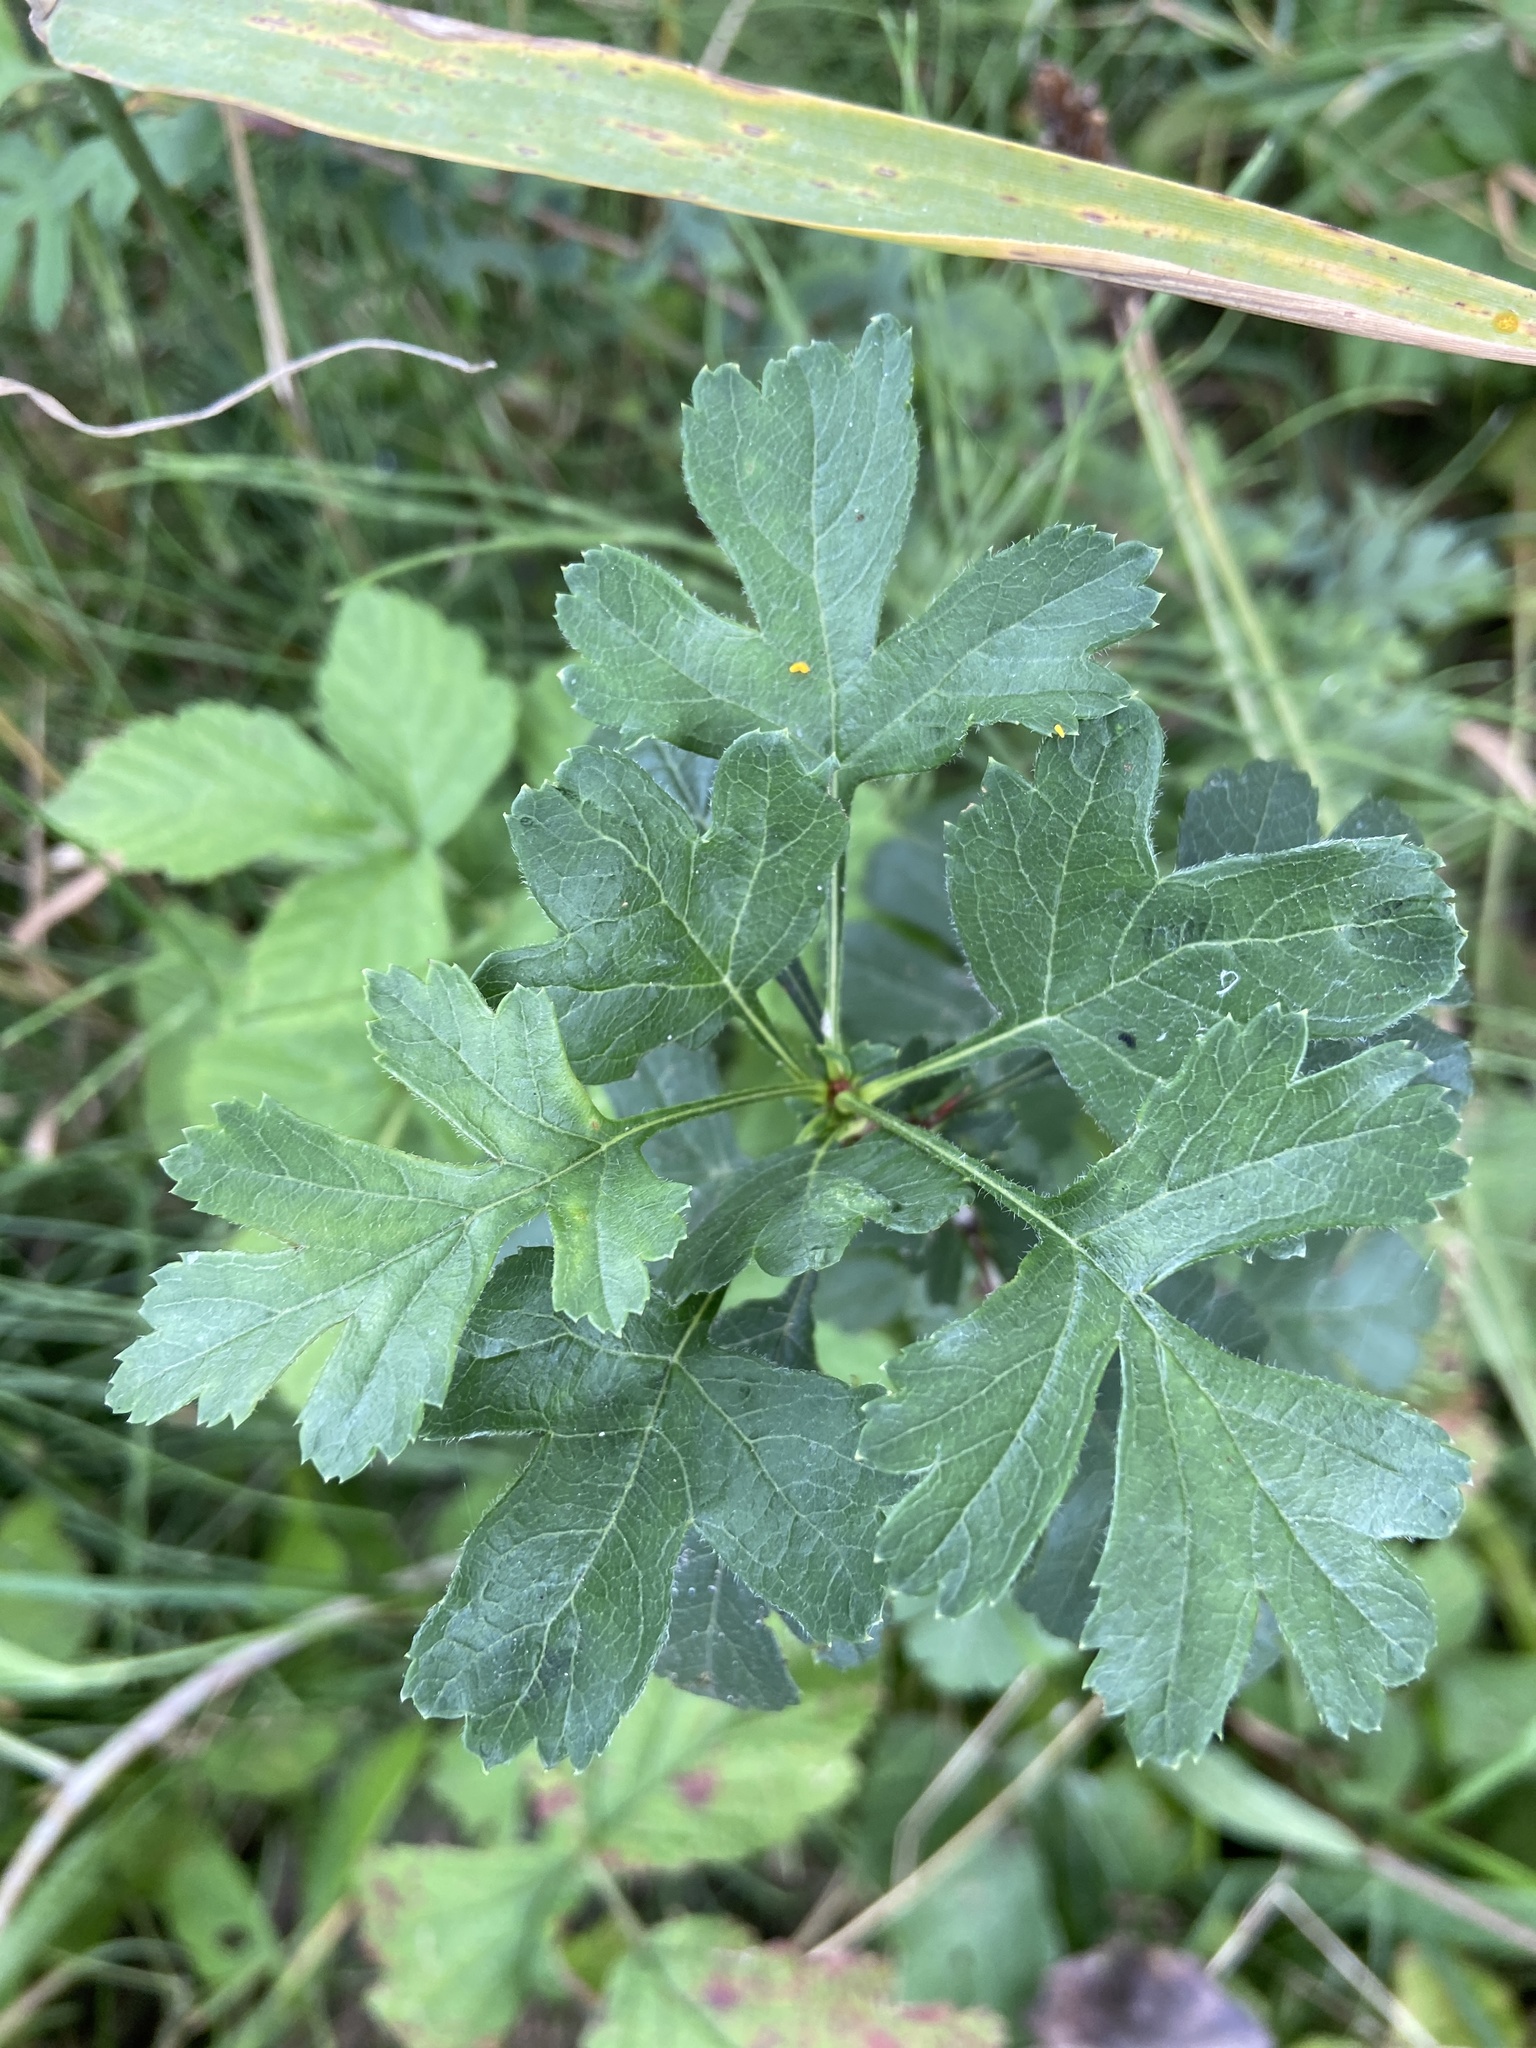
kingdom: Plantae
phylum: Tracheophyta
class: Magnoliopsida
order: Rosales
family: Rosaceae
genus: Crataegus
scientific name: Crataegus monogyna
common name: Hawthorn
